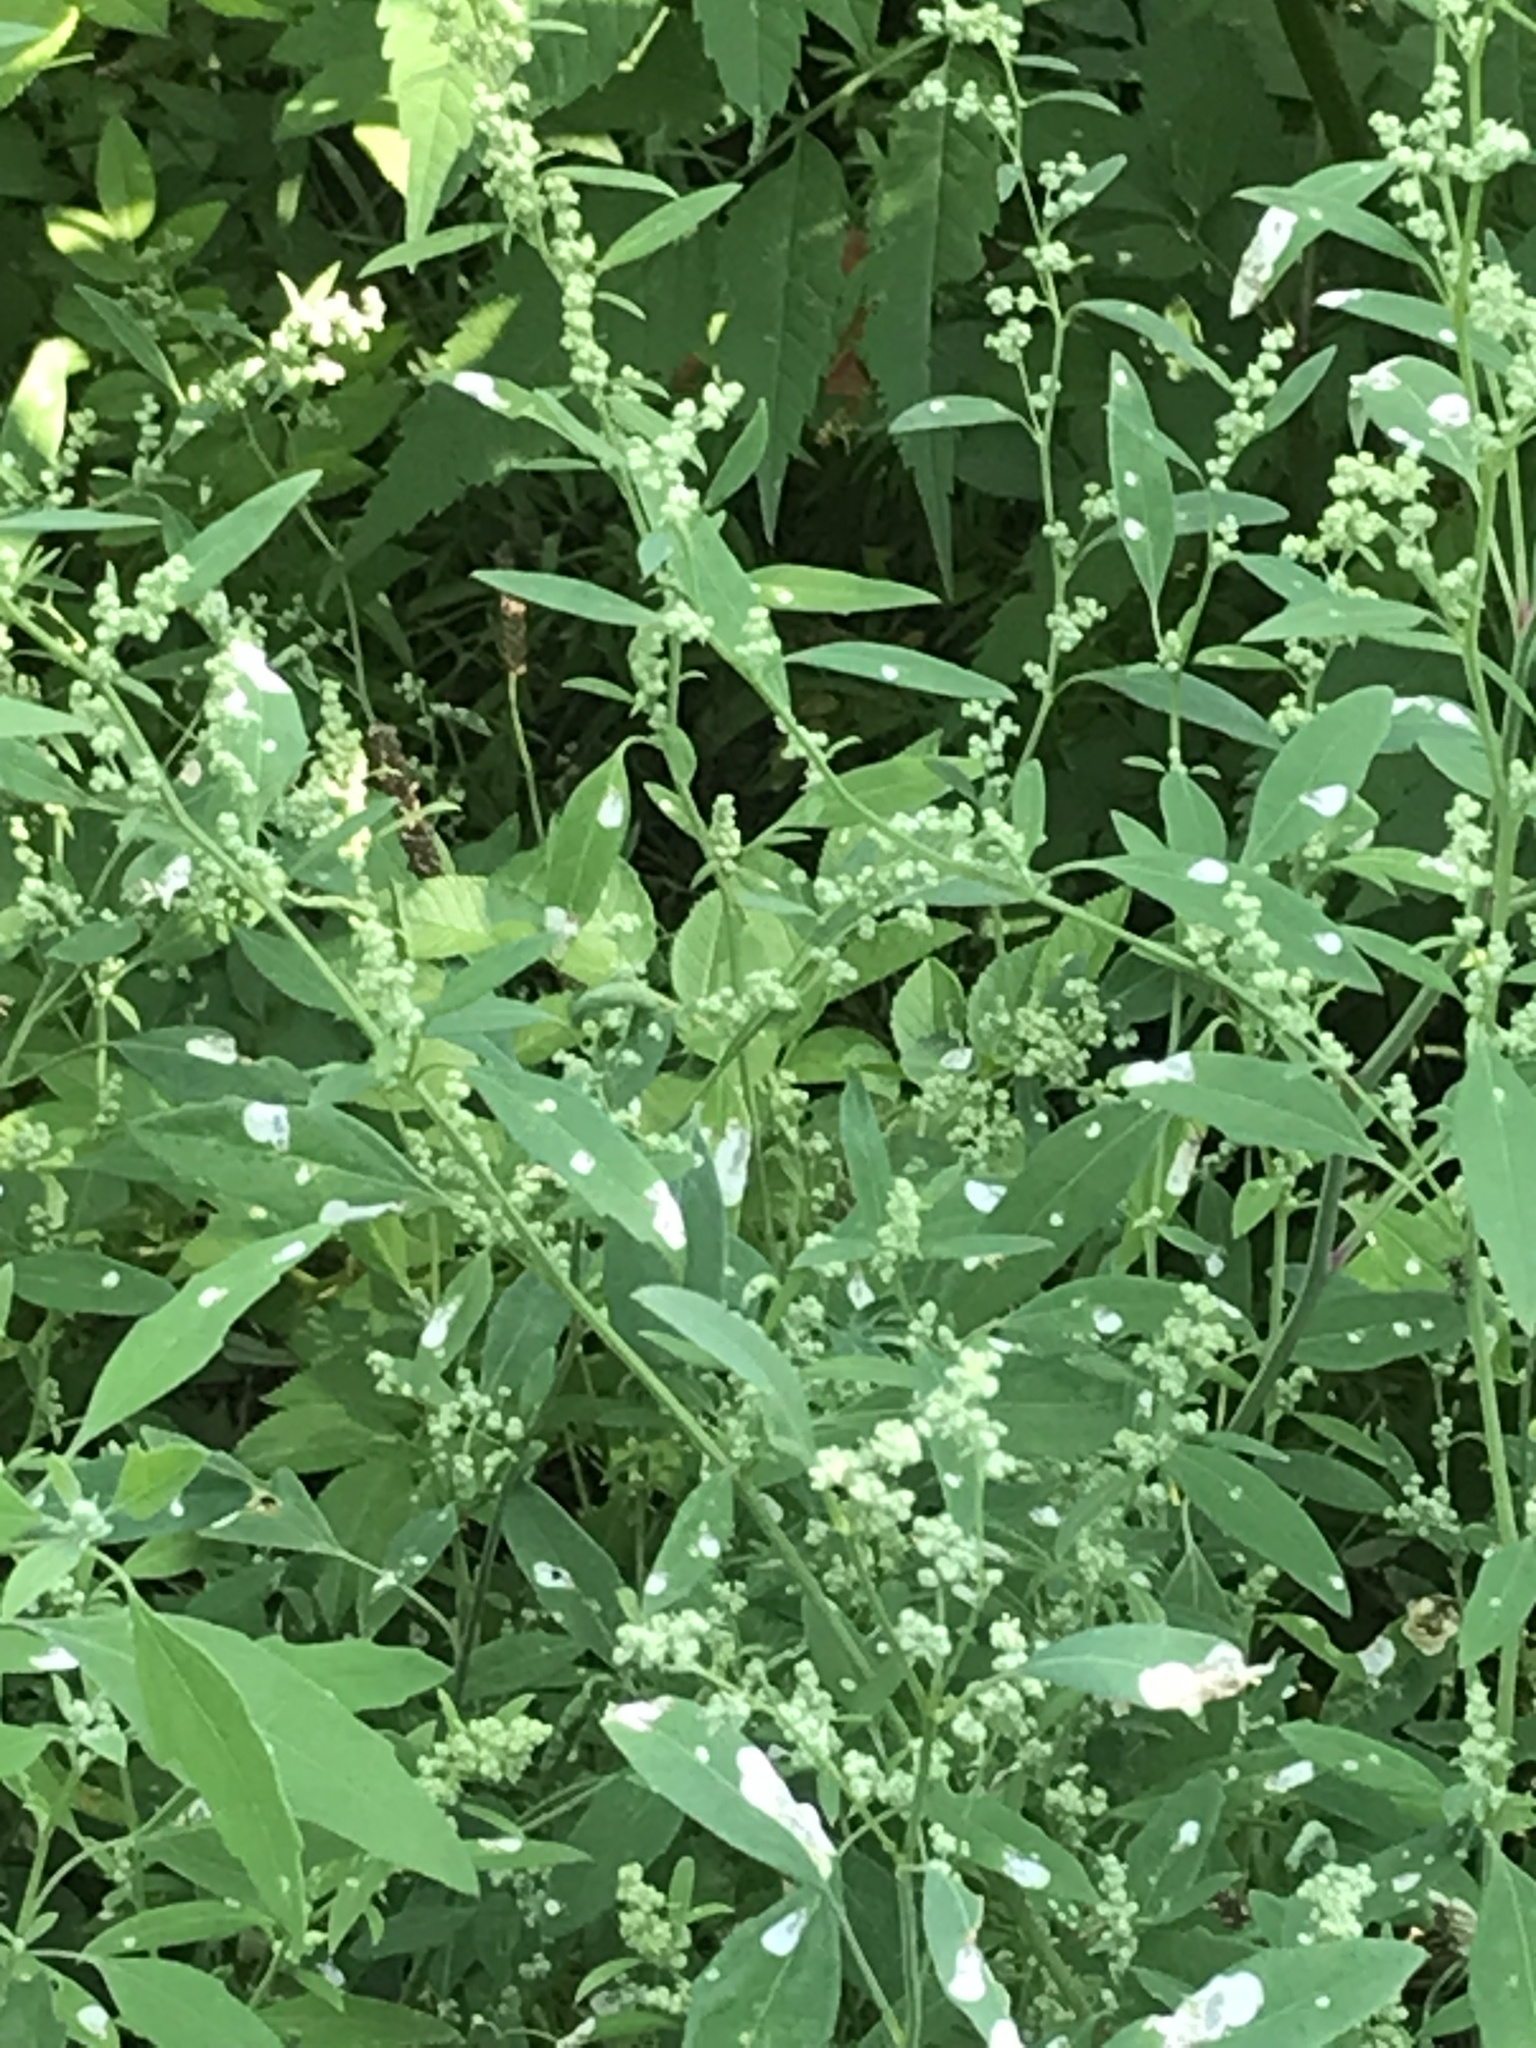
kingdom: Animalia
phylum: Arthropoda
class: Insecta
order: Lepidoptera
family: Gelechiidae
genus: Chrysoesthia
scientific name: Chrysoesthia sexguttella
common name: Moth
